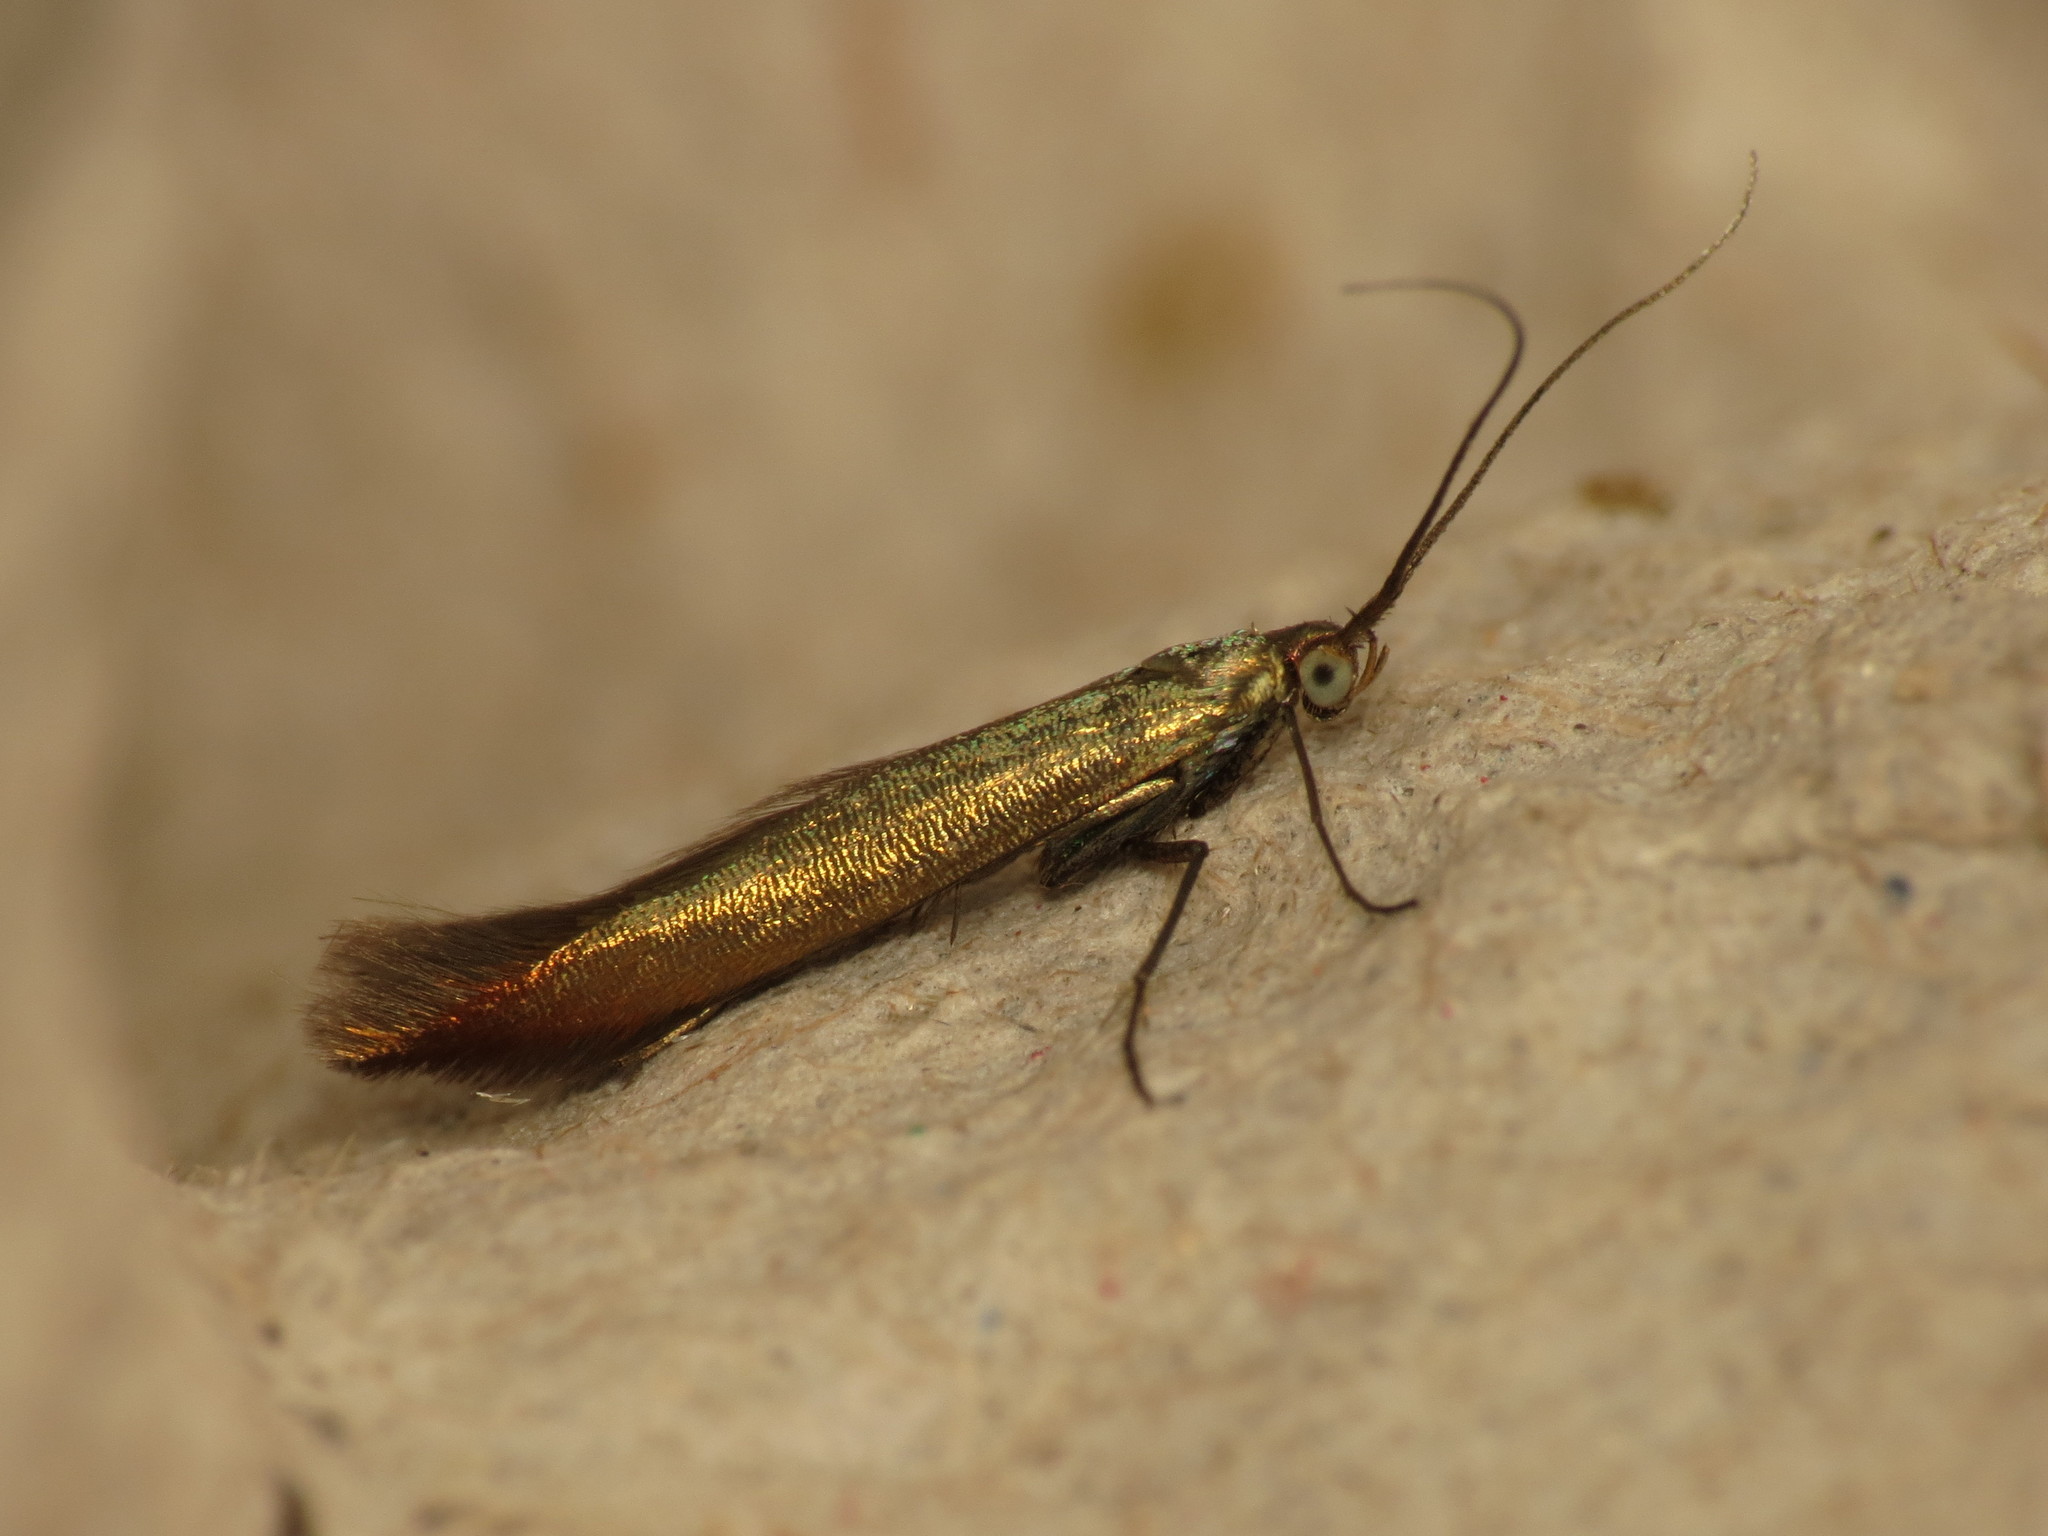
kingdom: Animalia
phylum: Arthropoda
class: Insecta
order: Lepidoptera
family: Coleophoridae
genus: Coleophora
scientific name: Coleophora trifolii
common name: Large clover case-bearer
